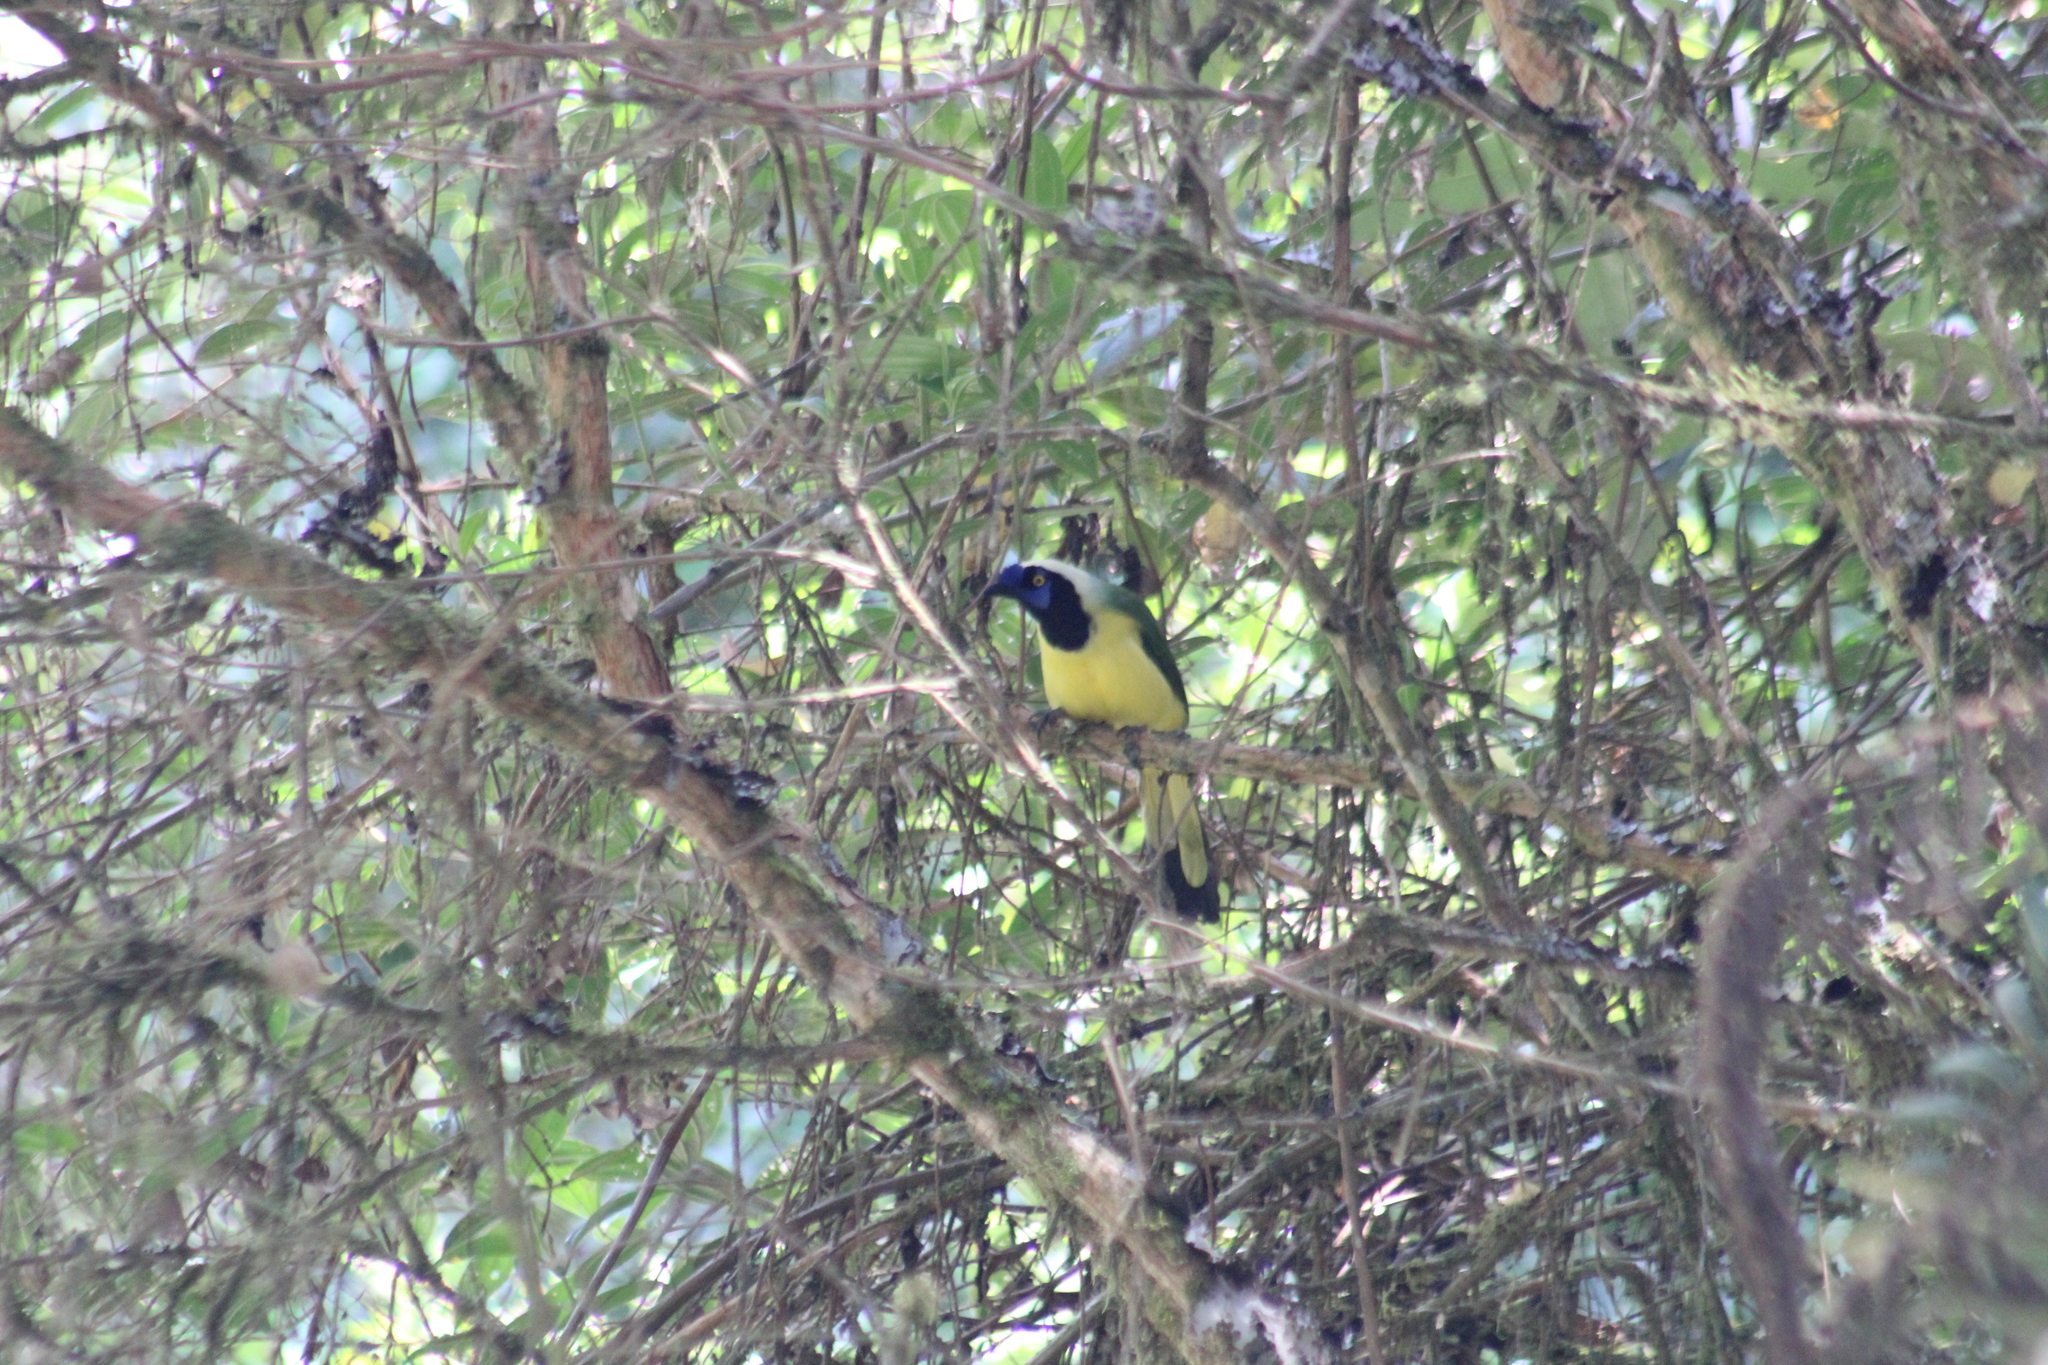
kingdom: Animalia
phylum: Chordata
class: Aves
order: Passeriformes
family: Corvidae
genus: Cyanocorax
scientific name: Cyanocorax yncas
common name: Green jay
